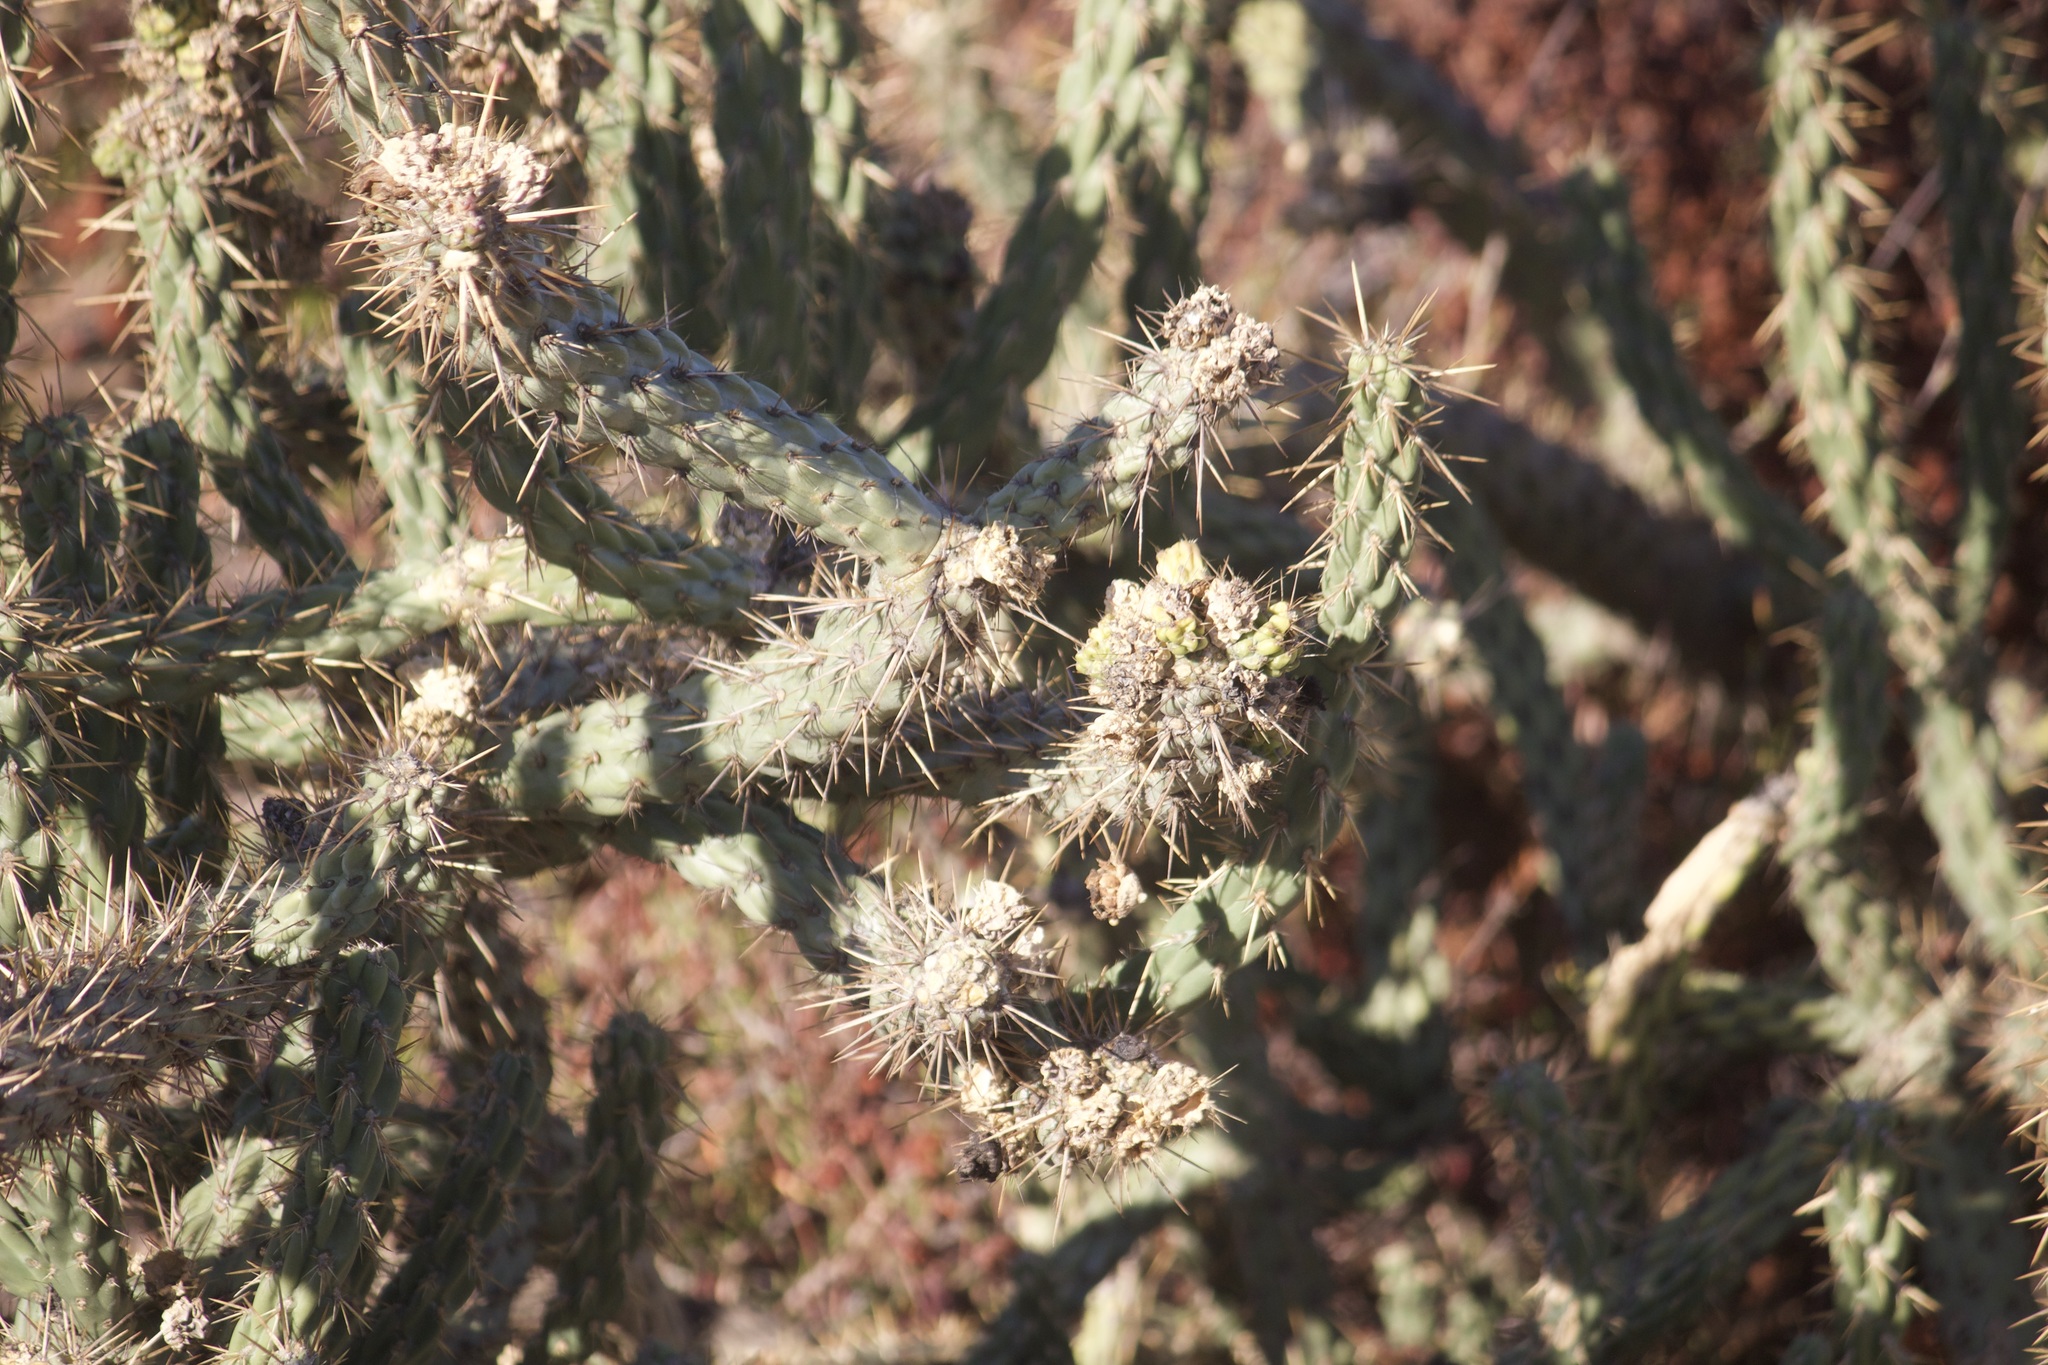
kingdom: Plantae
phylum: Tracheophyta
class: Magnoliopsida
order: Caryophyllales
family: Cactaceae
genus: Cylindropuntia
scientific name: Cylindropuntia bernardina
